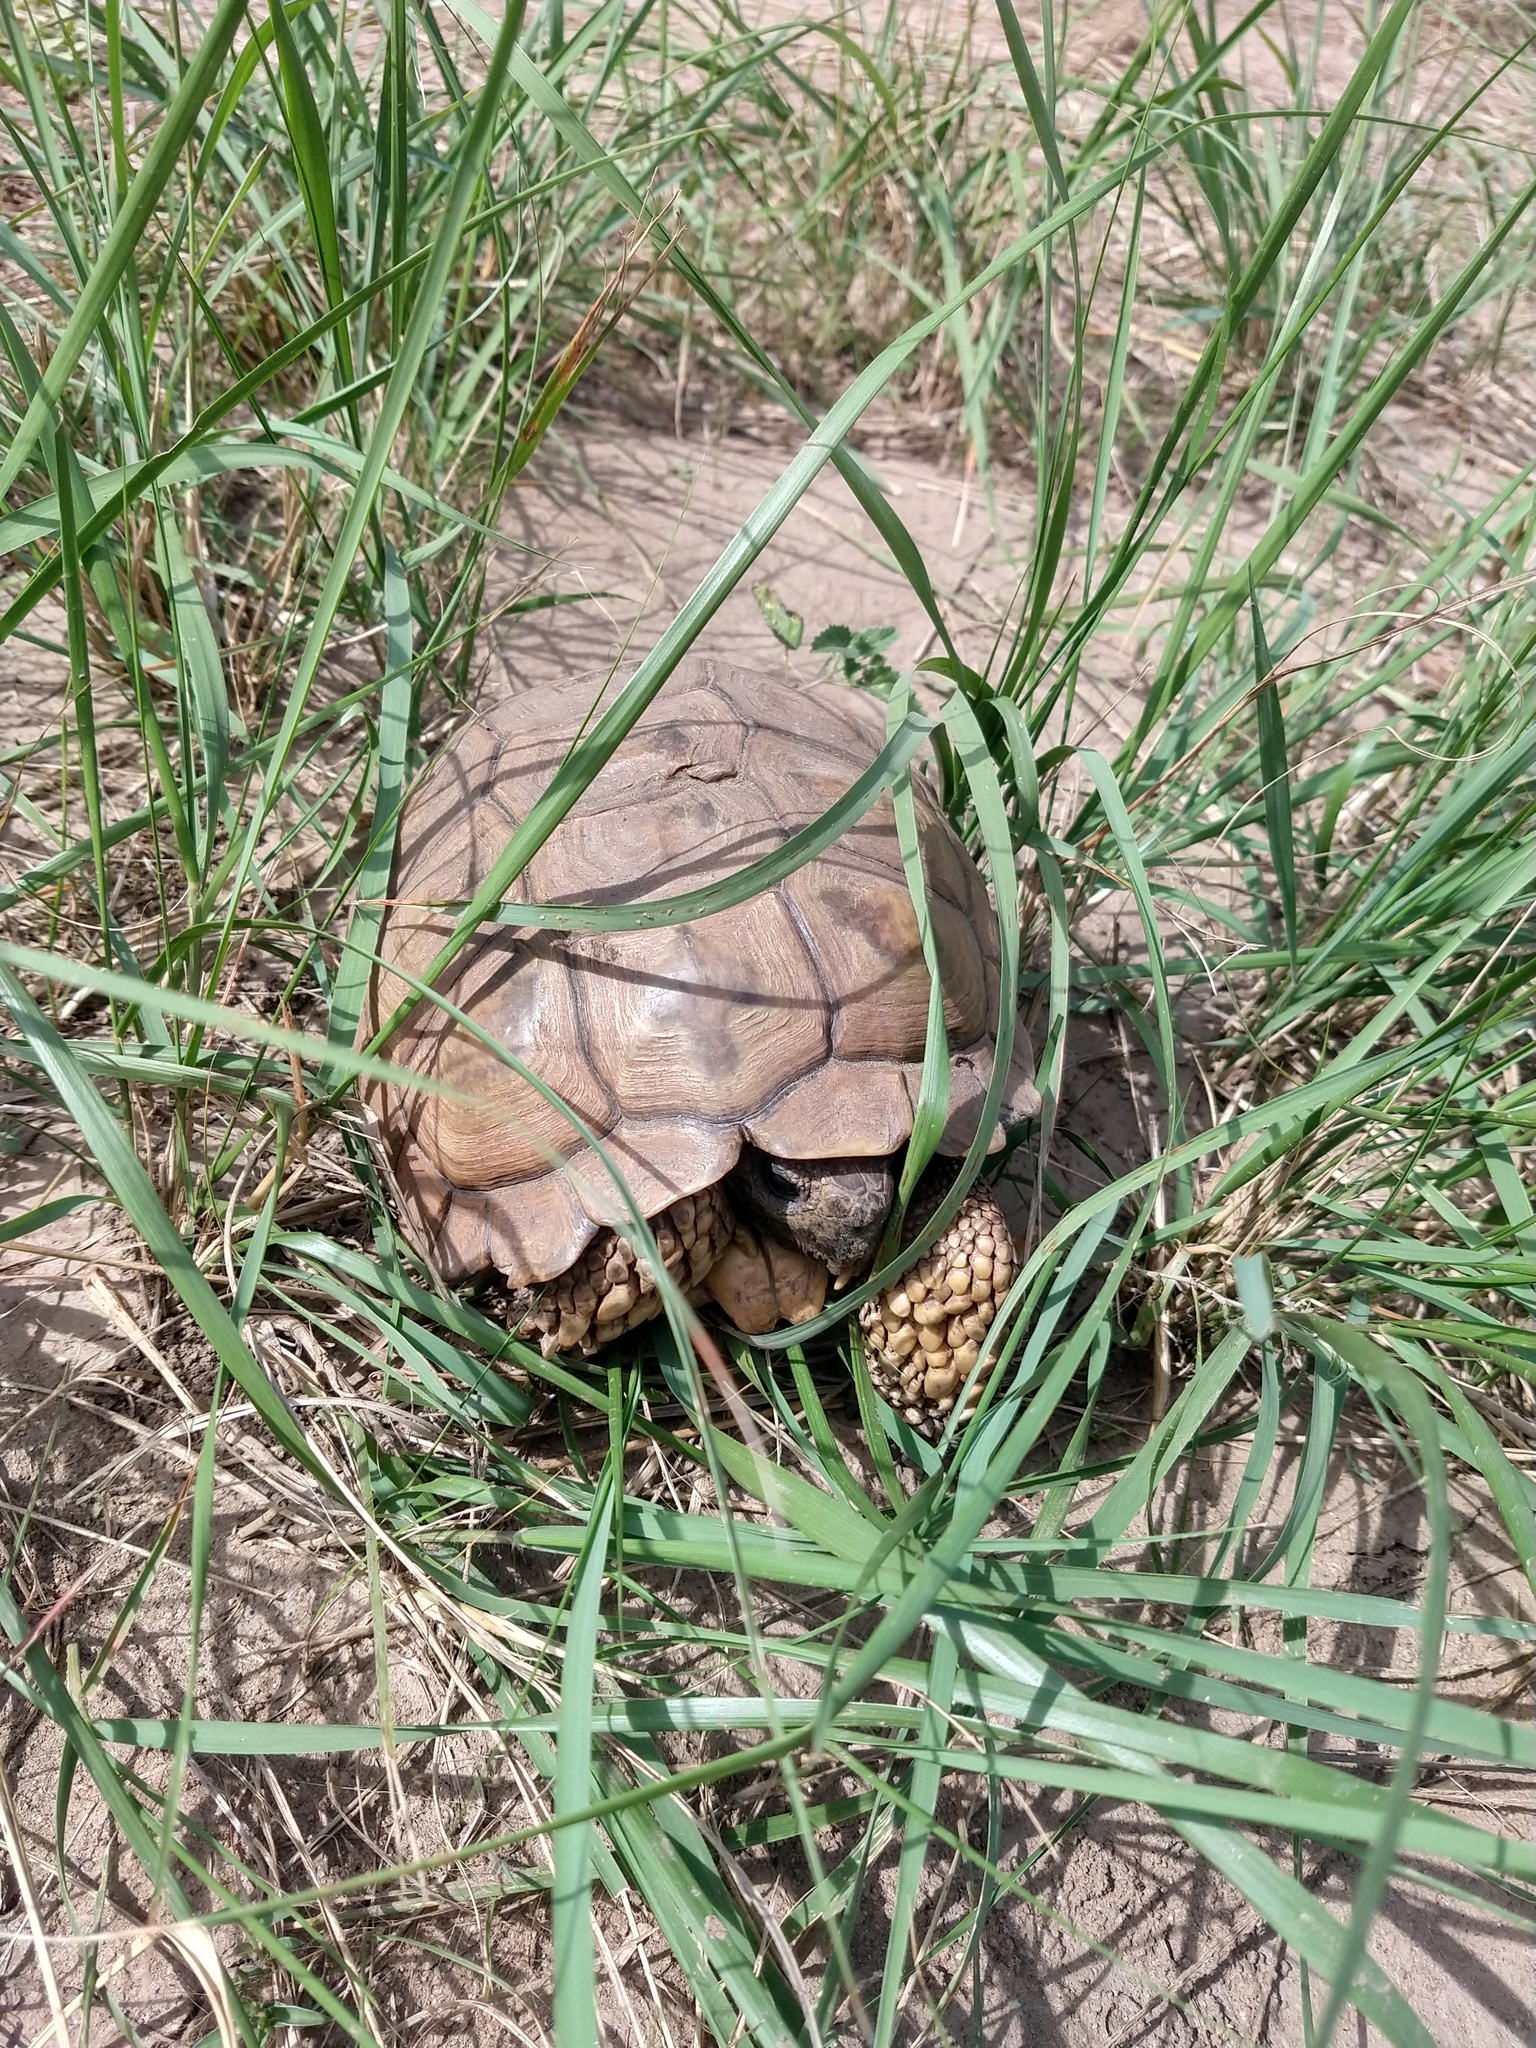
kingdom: Animalia
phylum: Chordata
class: Testudines
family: Testudinidae
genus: Chelonoidis
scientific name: Chelonoidis chilensis
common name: Chaco tortoise
